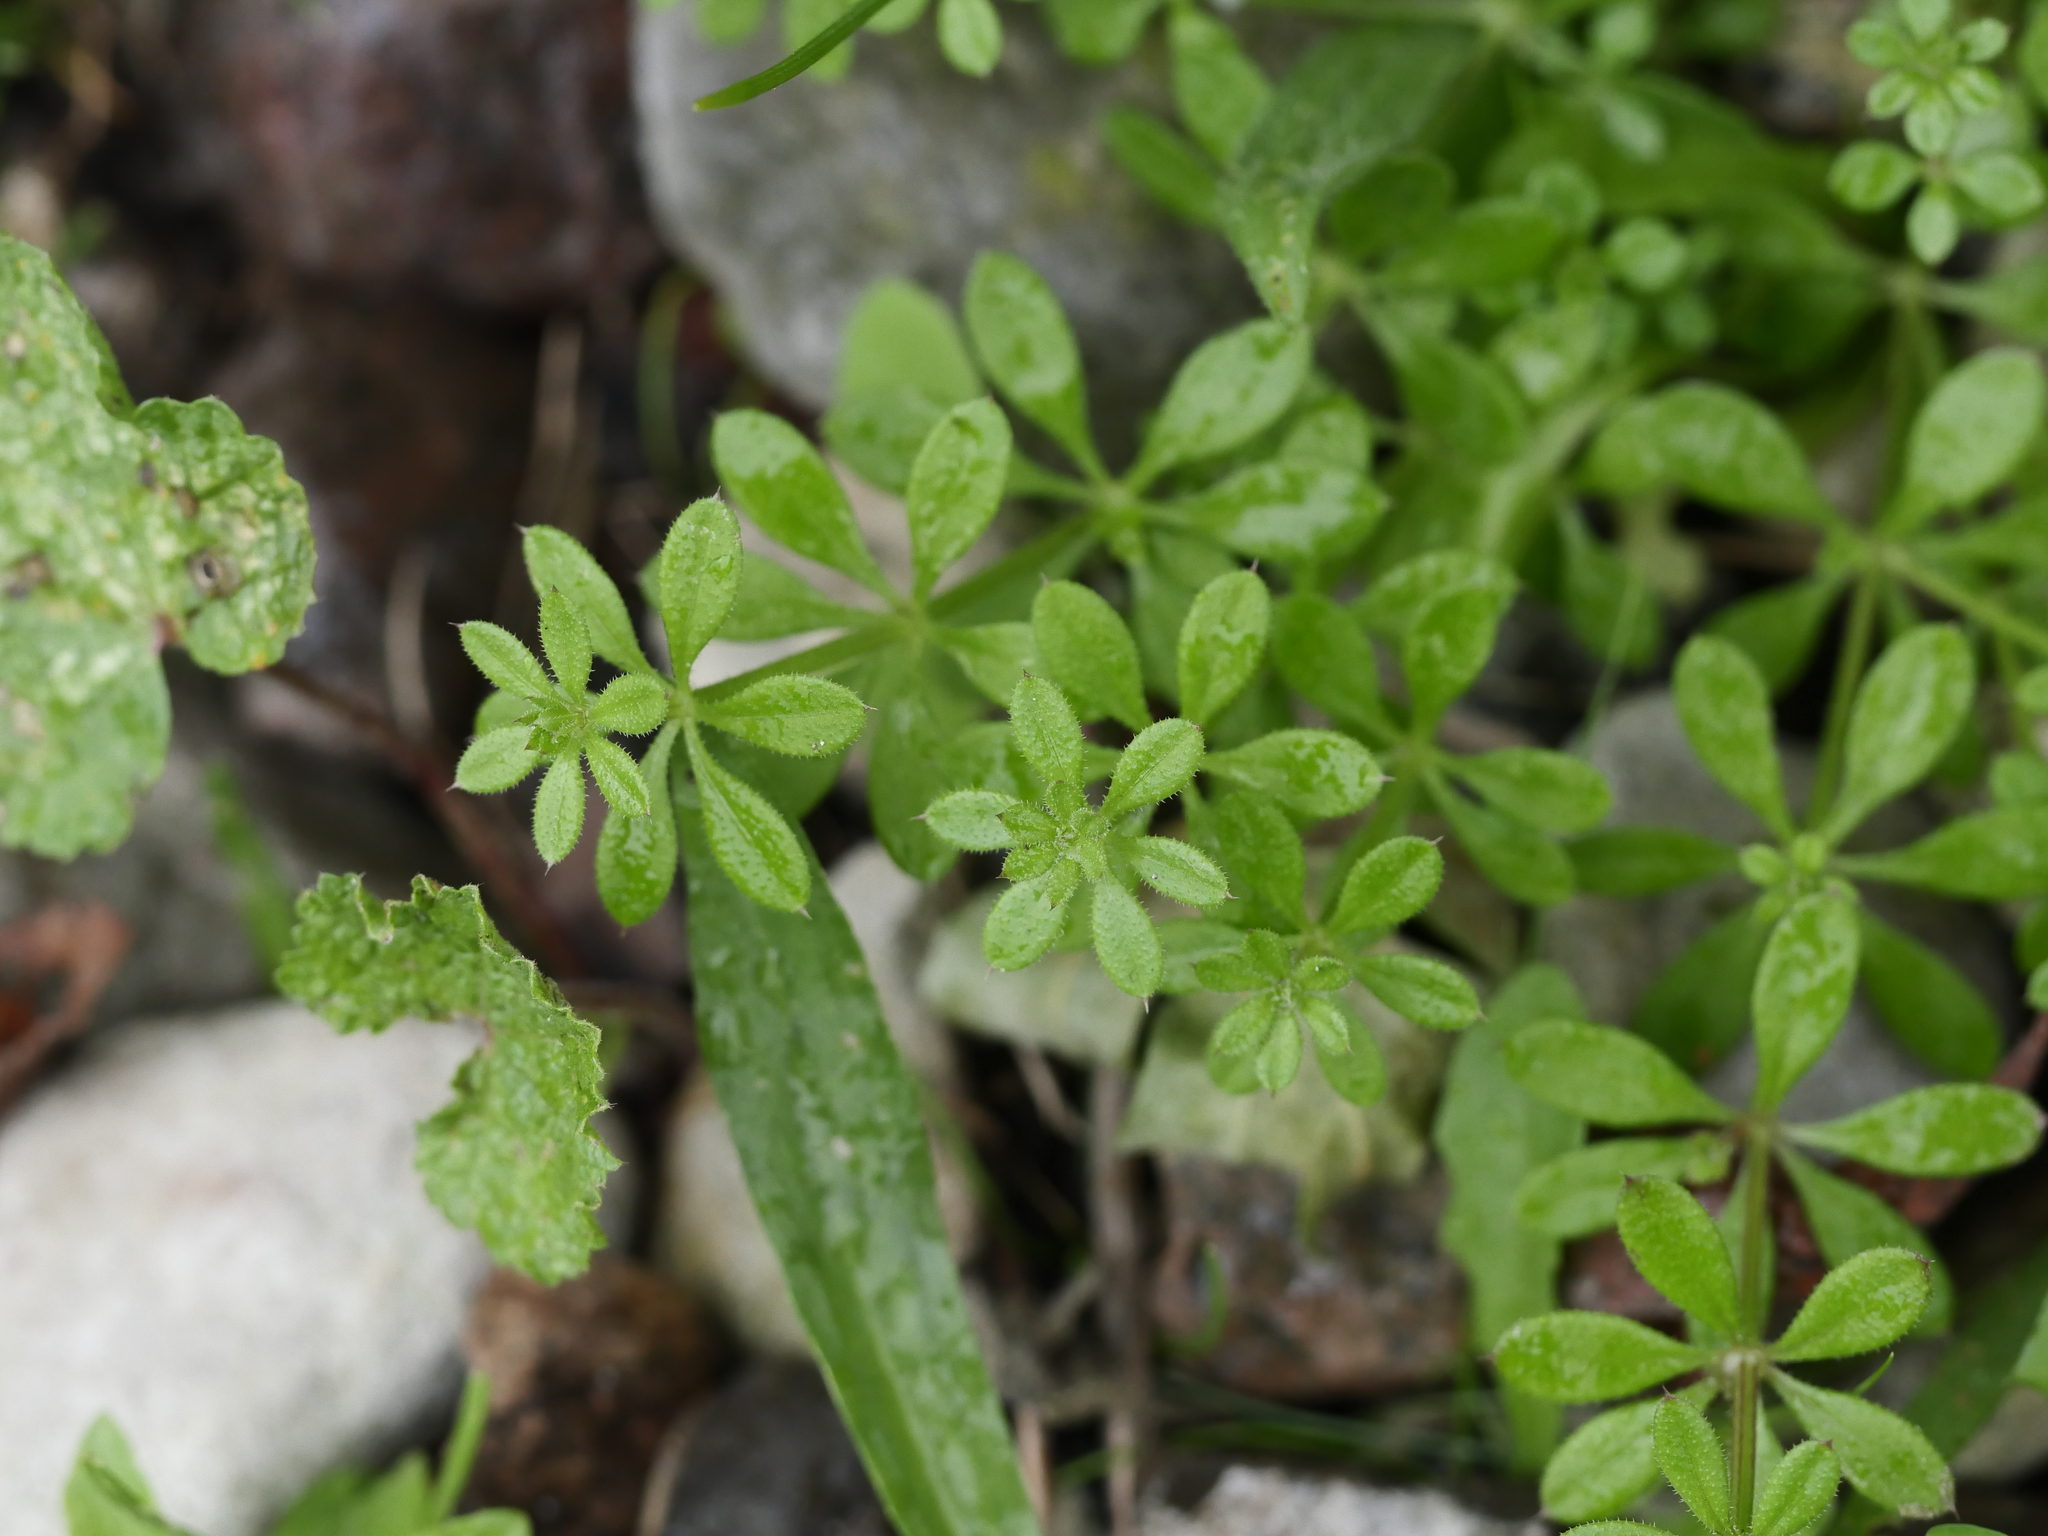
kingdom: Plantae
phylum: Tracheophyta
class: Magnoliopsida
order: Gentianales
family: Rubiaceae
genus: Galium
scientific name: Galium aparine
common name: Cleavers
